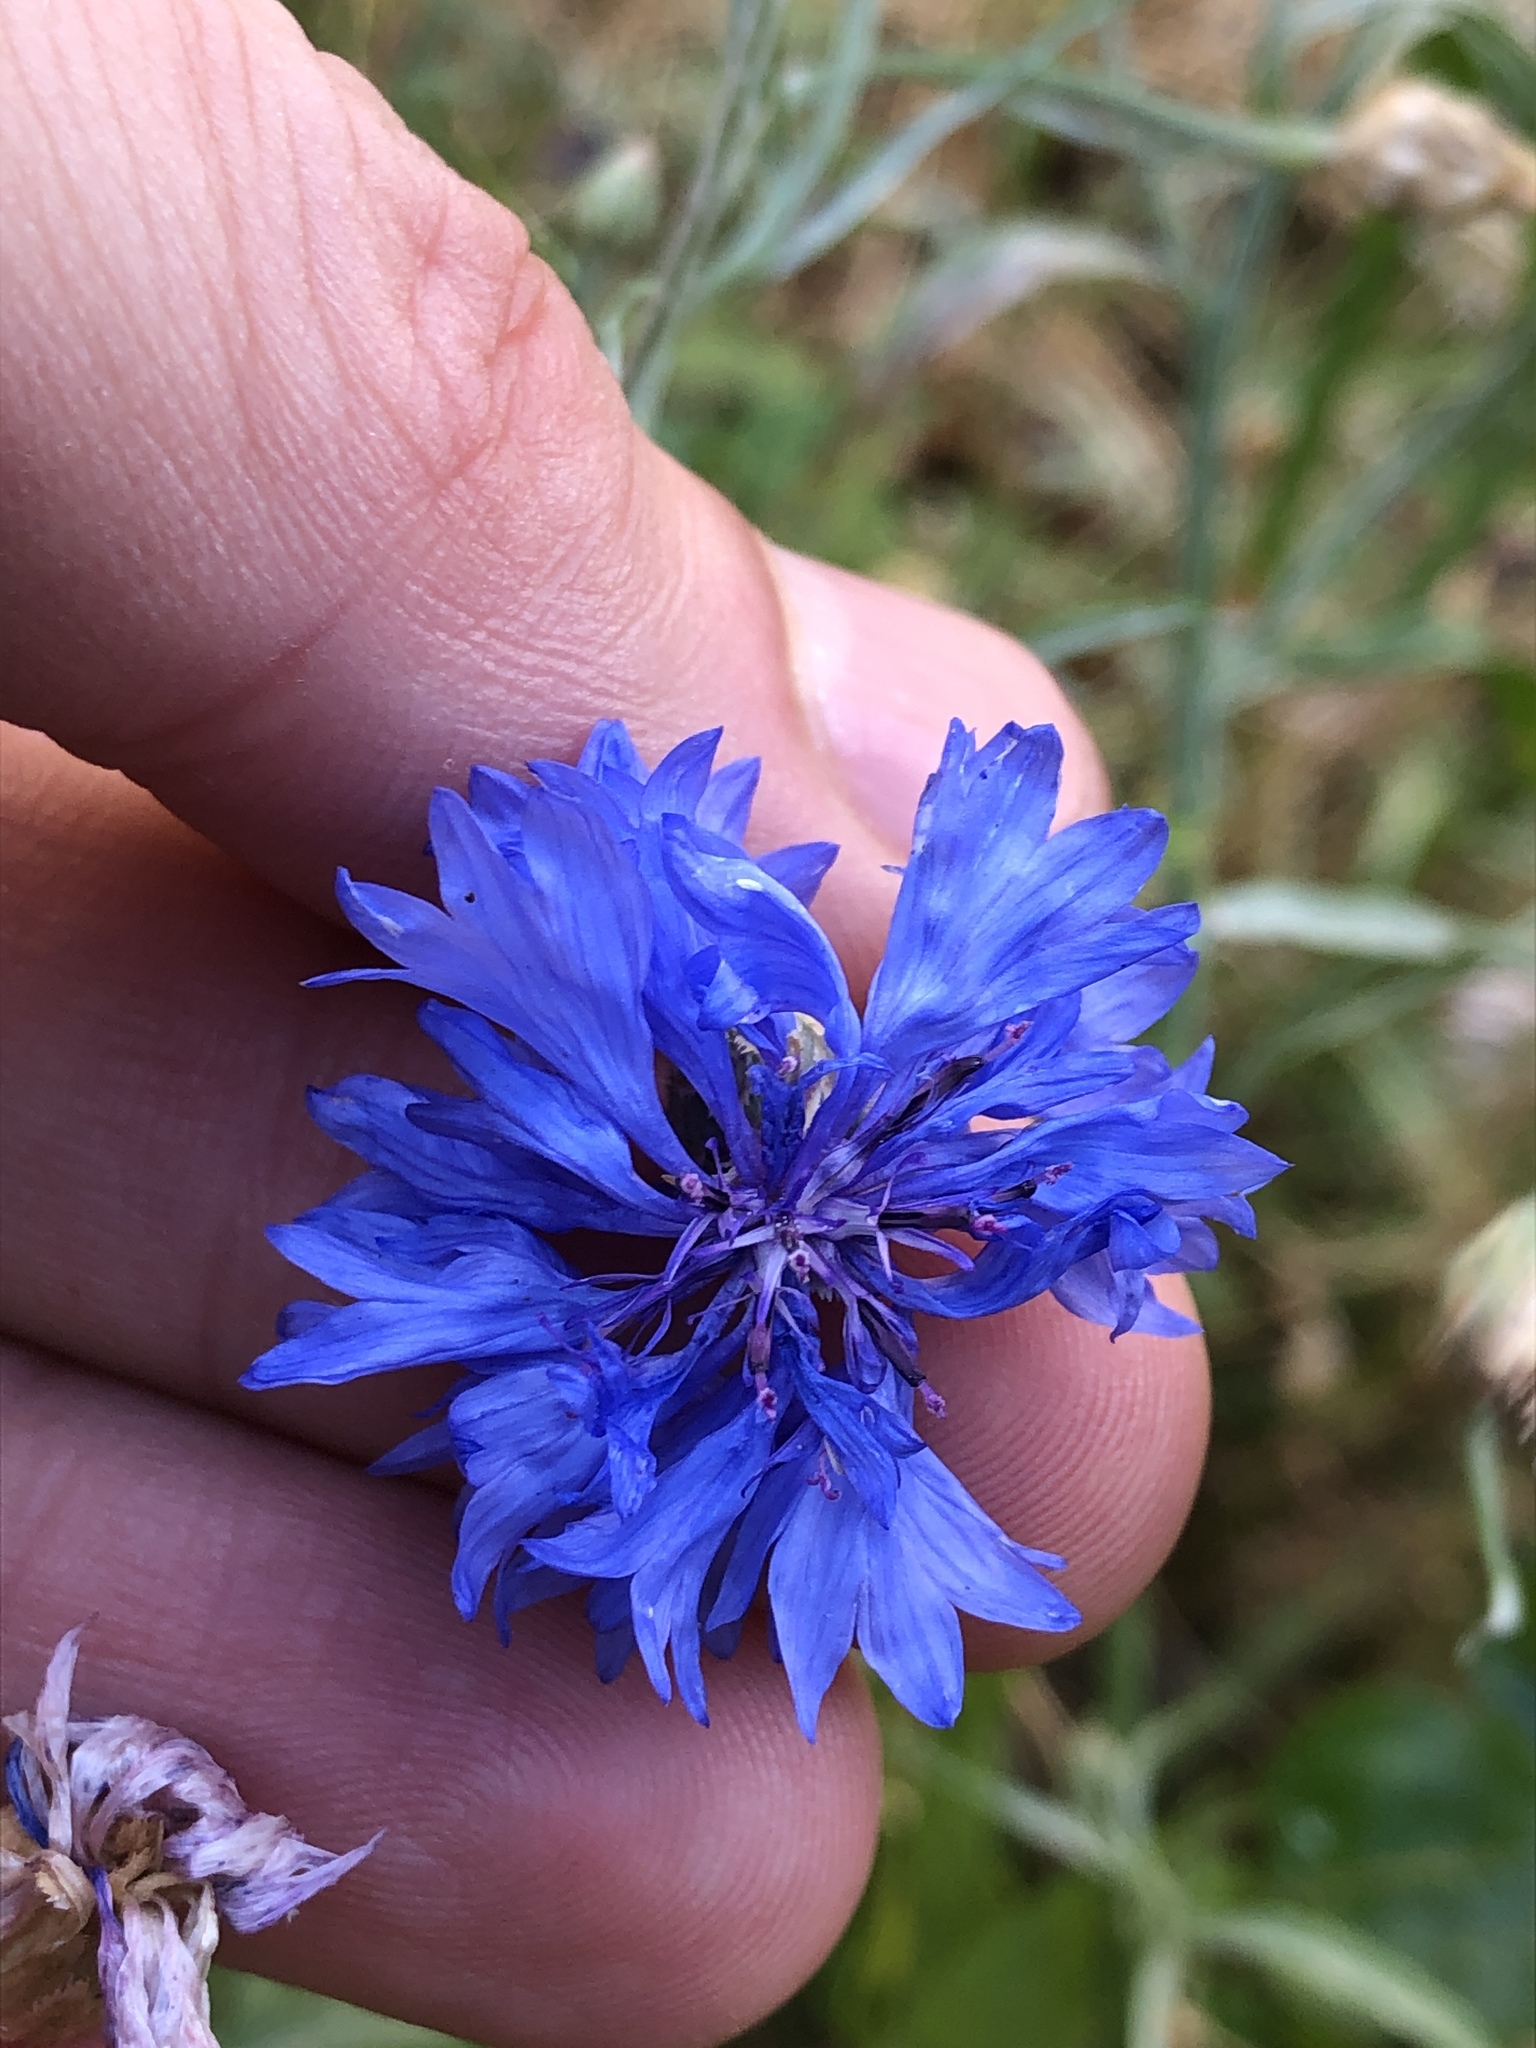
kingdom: Plantae
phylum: Tracheophyta
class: Magnoliopsida
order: Asterales
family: Asteraceae
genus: Centaurea
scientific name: Centaurea cyanus
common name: Cornflower
